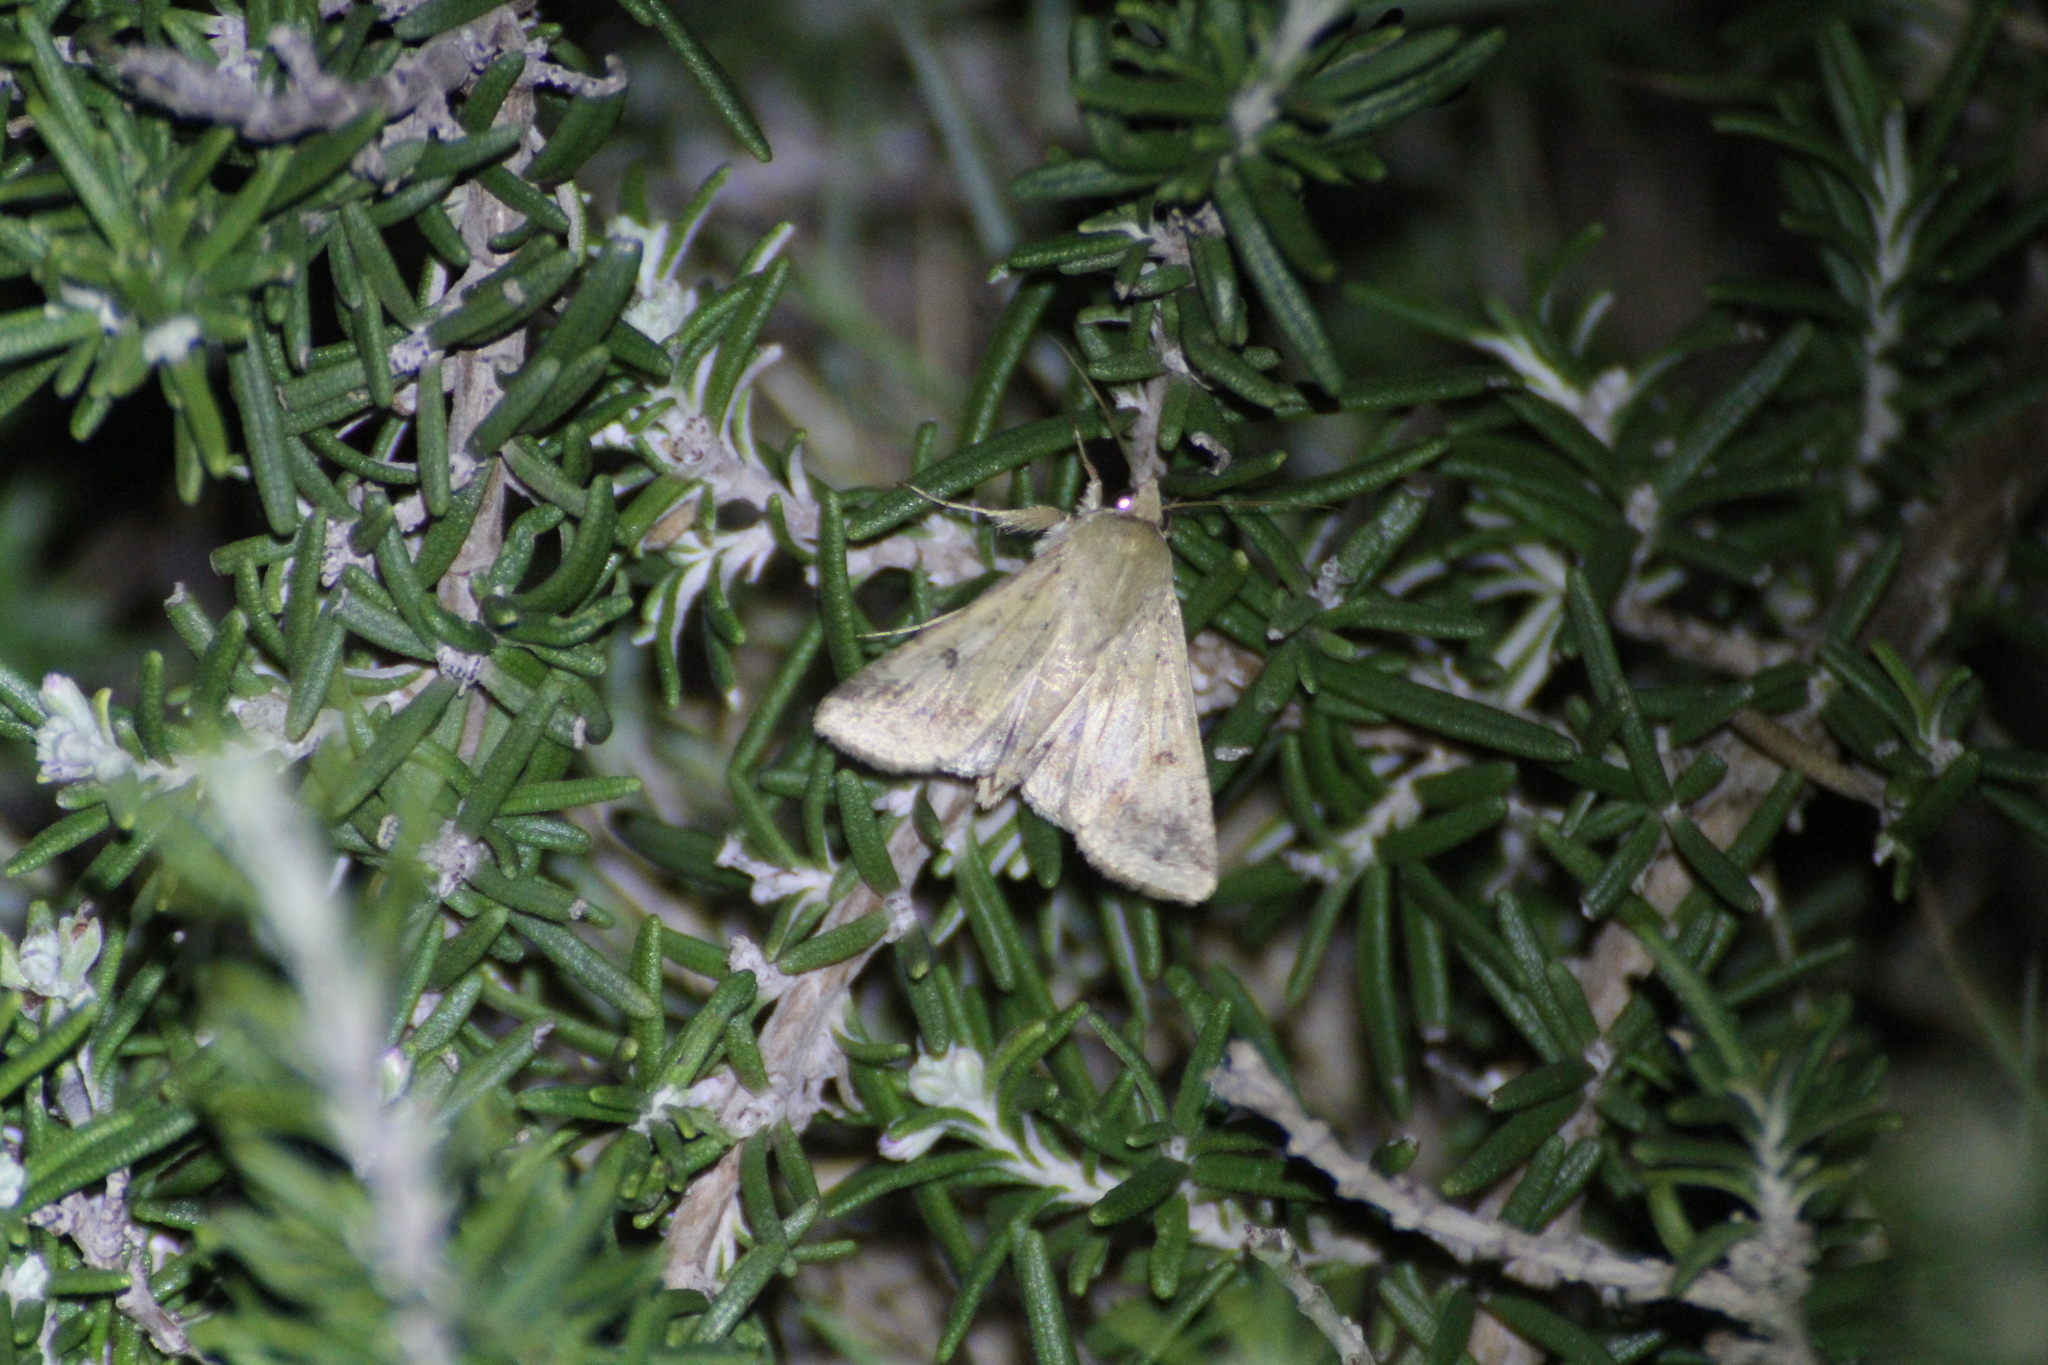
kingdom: Animalia
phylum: Arthropoda
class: Insecta
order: Lepidoptera
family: Noctuidae
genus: Helicoverpa
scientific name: Helicoverpa armigera
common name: Cotton bollworm
